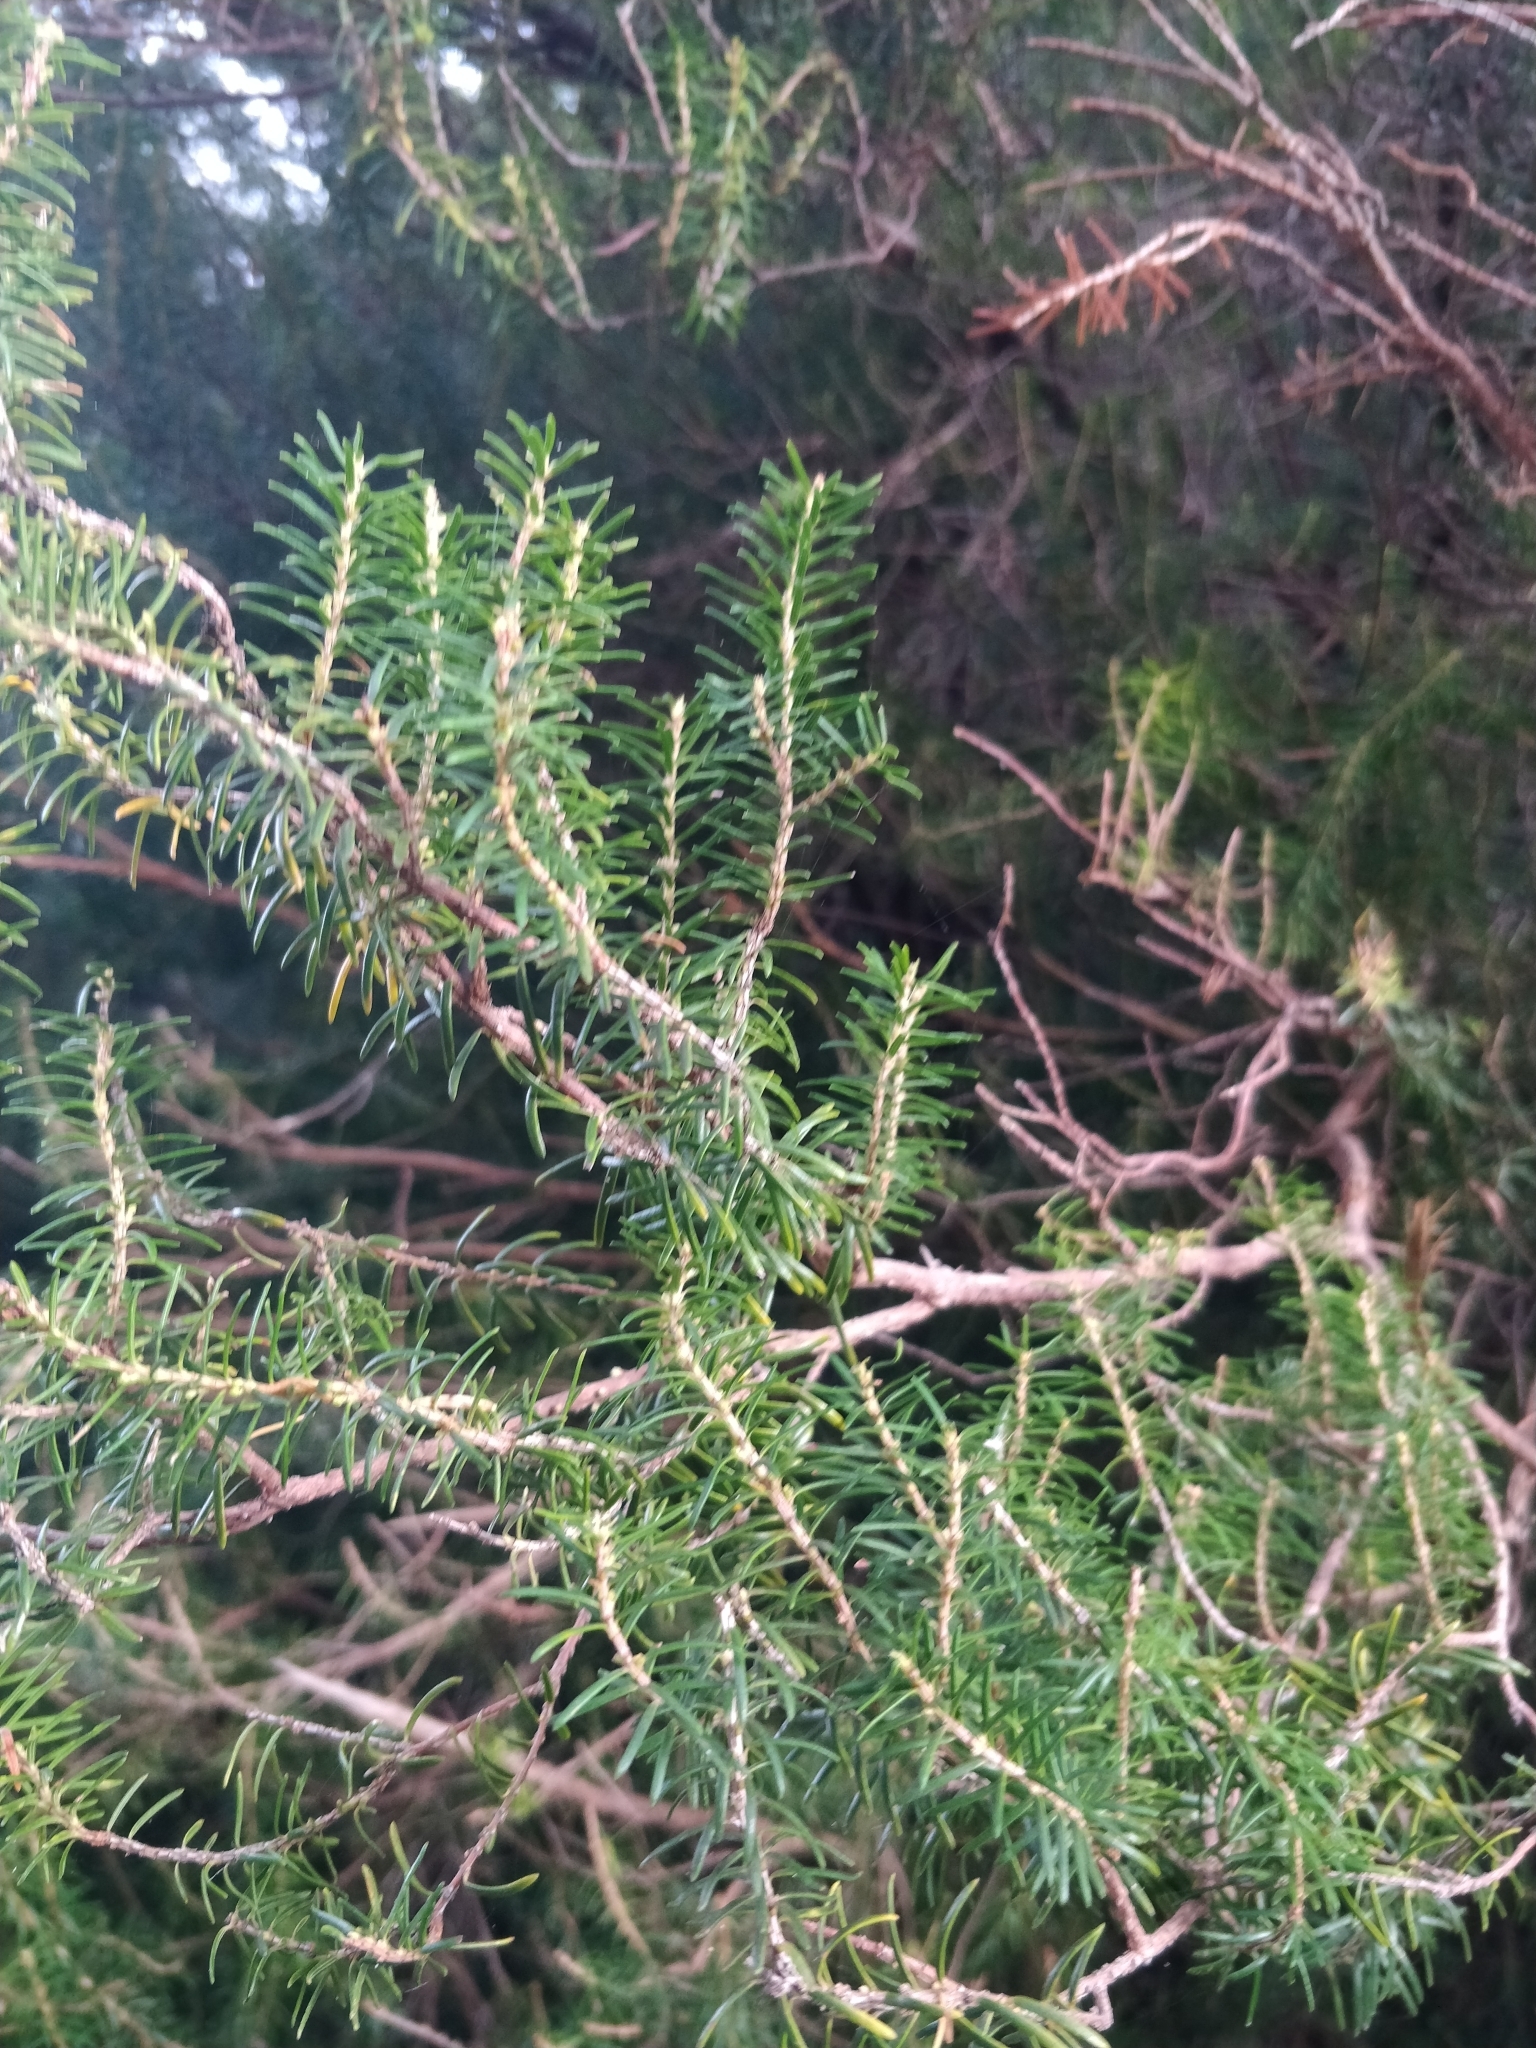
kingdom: Plantae
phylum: Tracheophyta
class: Magnoliopsida
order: Ericales
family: Ericaceae
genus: Erica
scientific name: Erica platycodon
